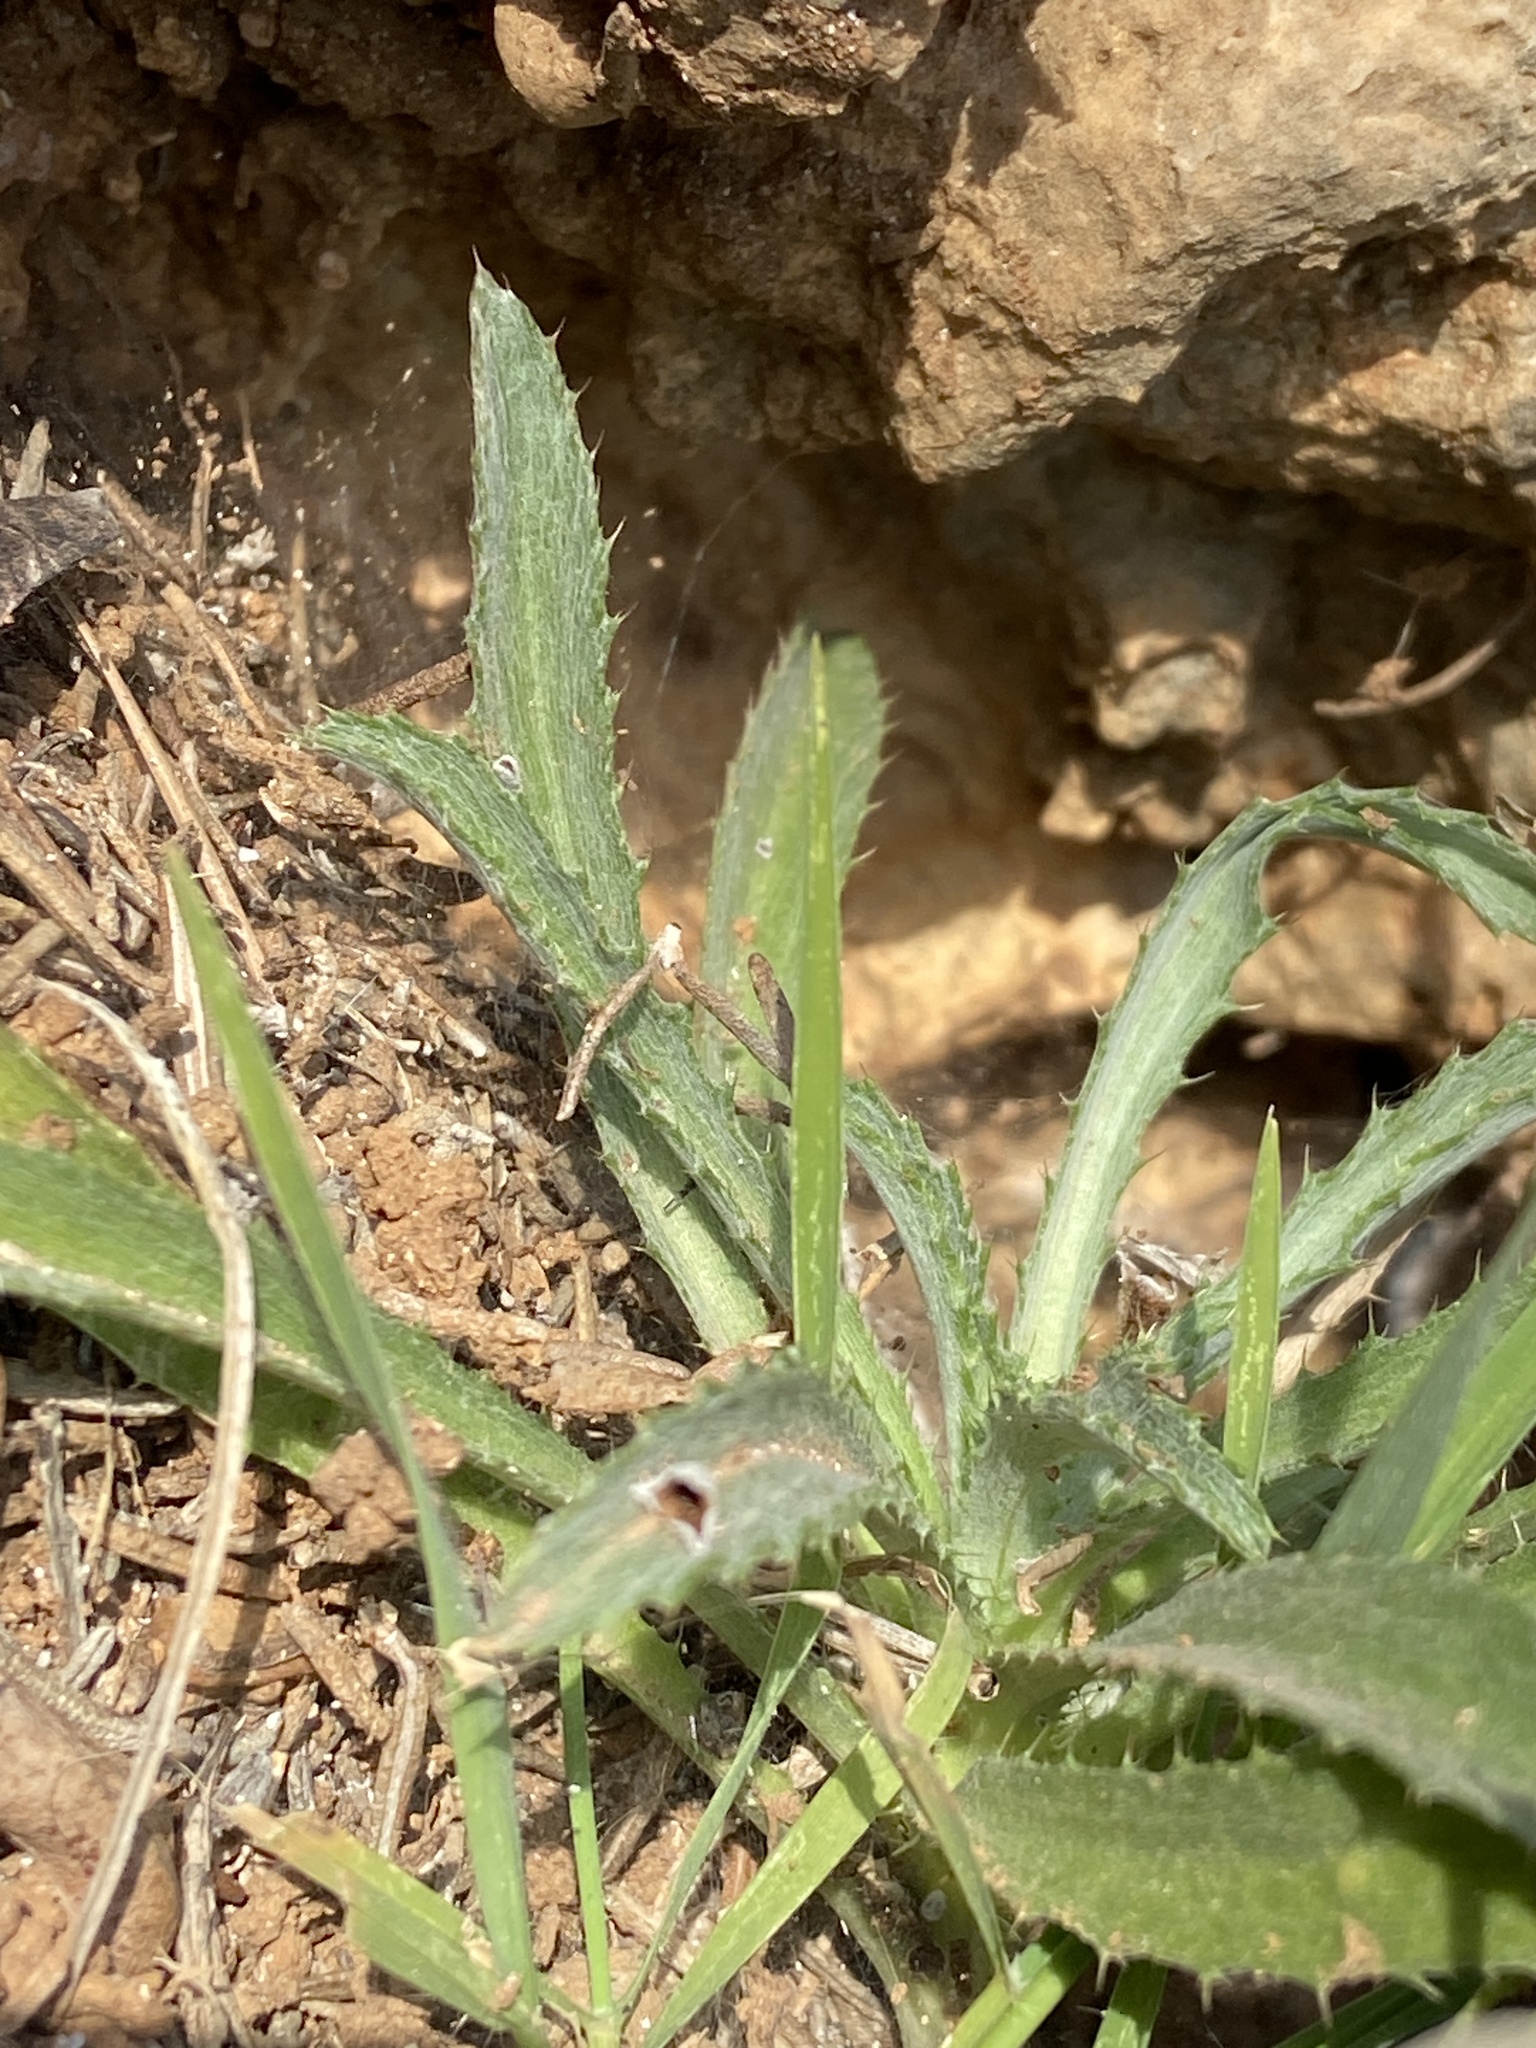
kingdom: Plantae
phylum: Tracheophyta
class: Magnoliopsida
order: Asterales
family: Asteraceae
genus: Atractylis
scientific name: Atractylis cancellata
